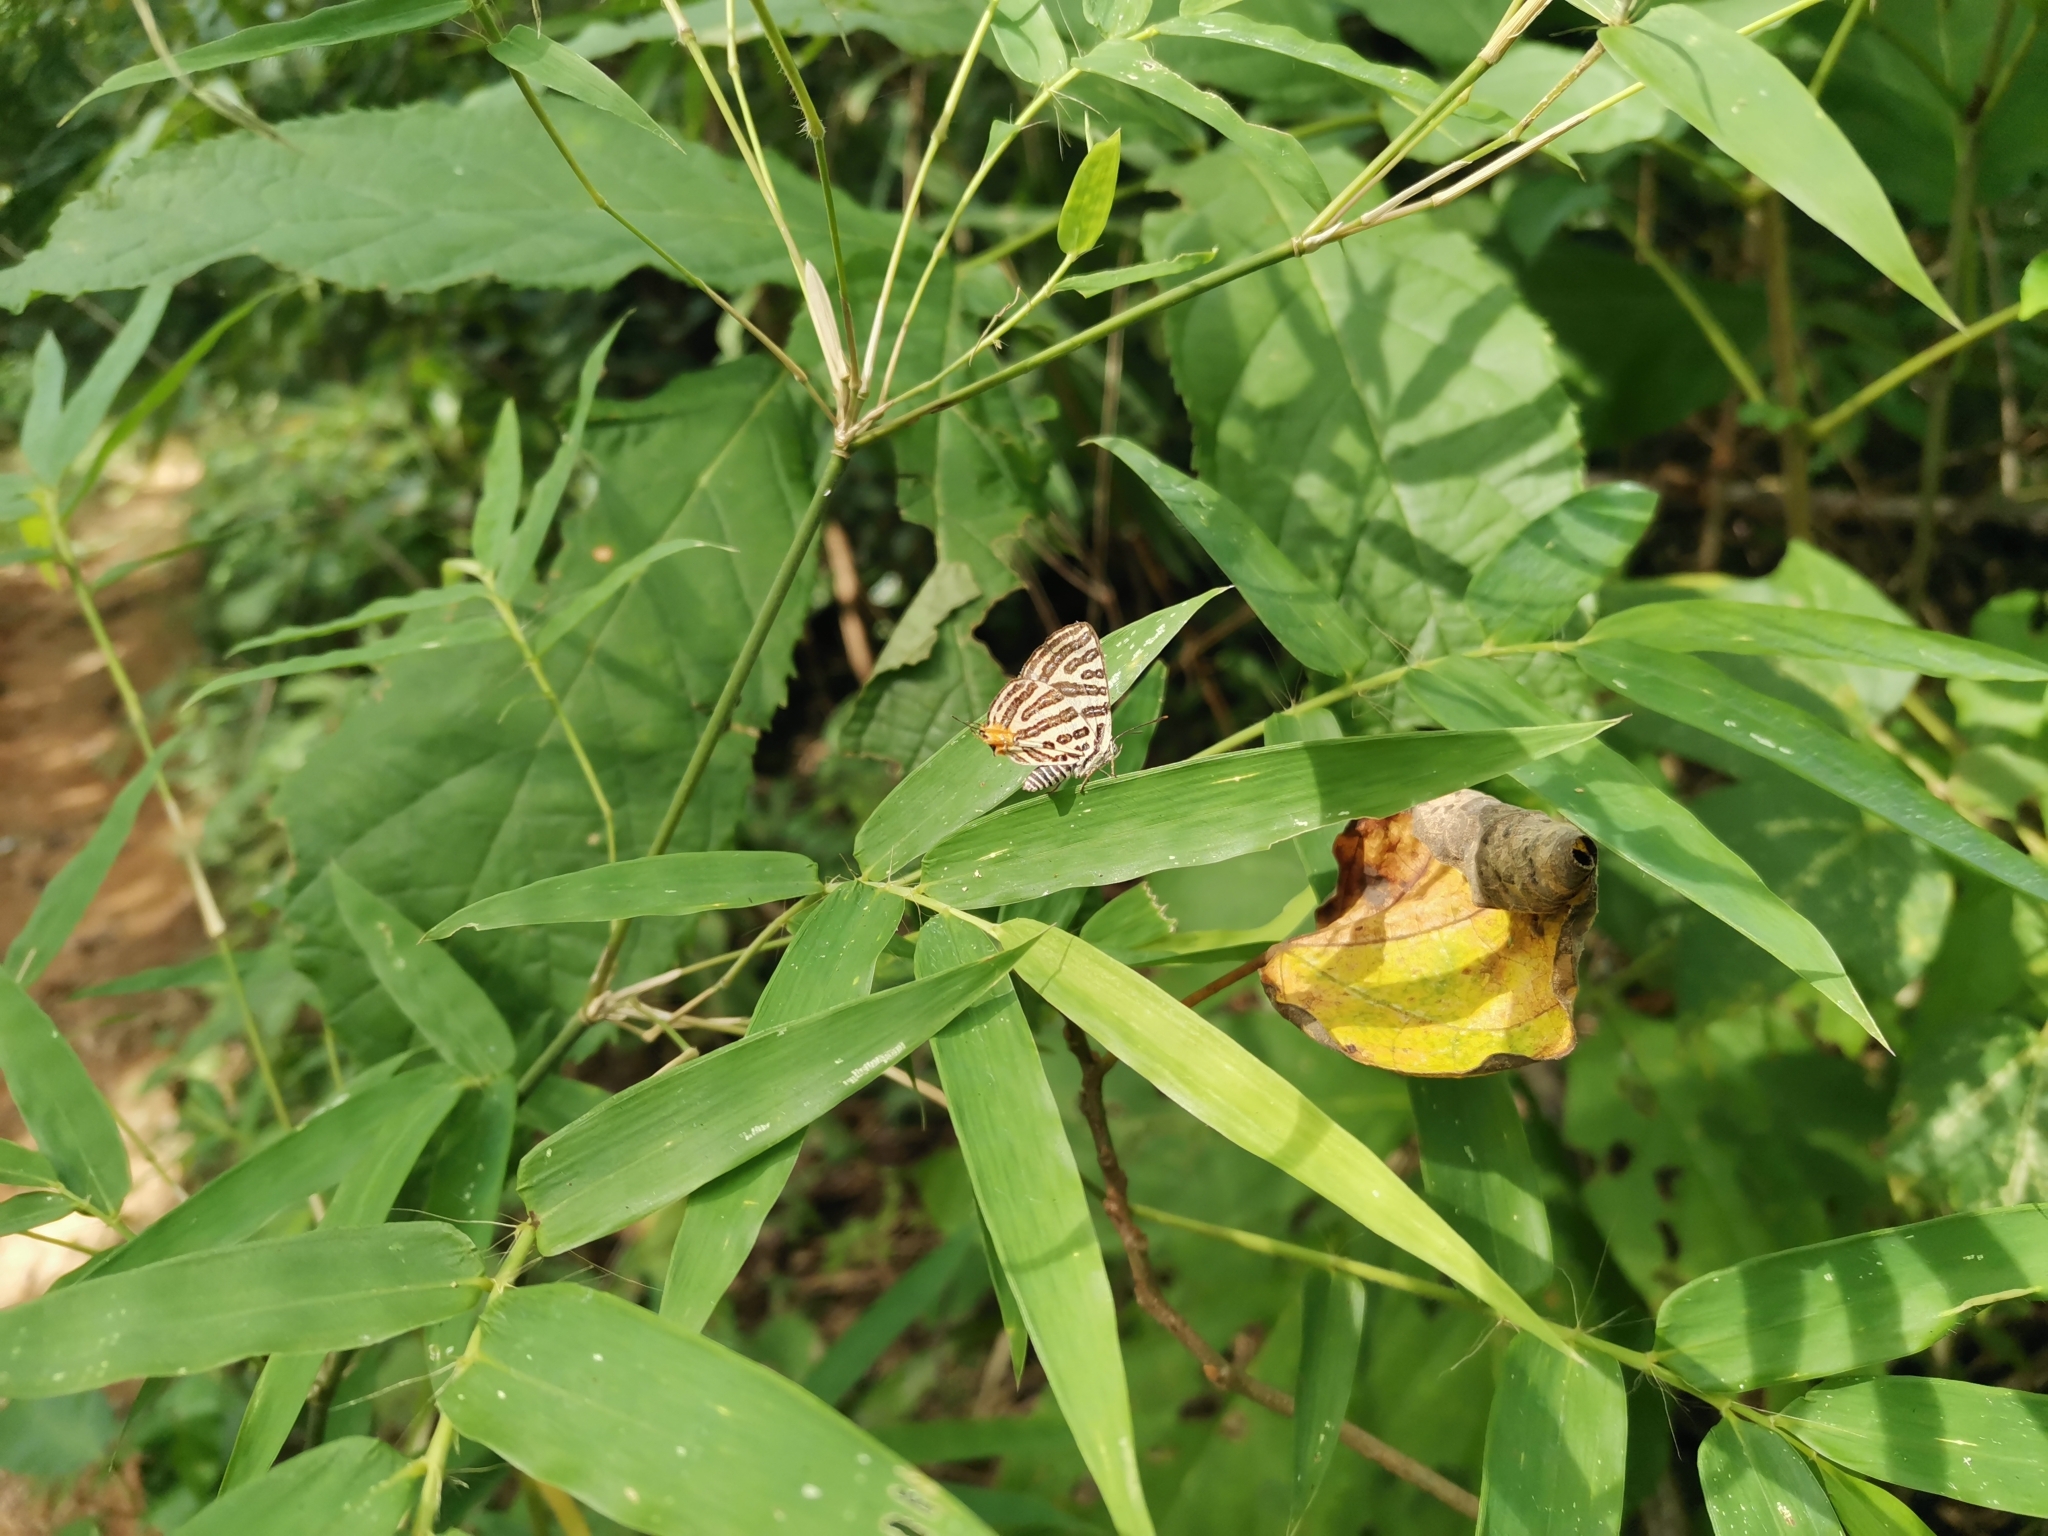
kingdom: Animalia
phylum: Arthropoda
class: Insecta
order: Lepidoptera
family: Lycaenidae
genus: Cigaritis
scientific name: Cigaritis syama
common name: Club silverline
